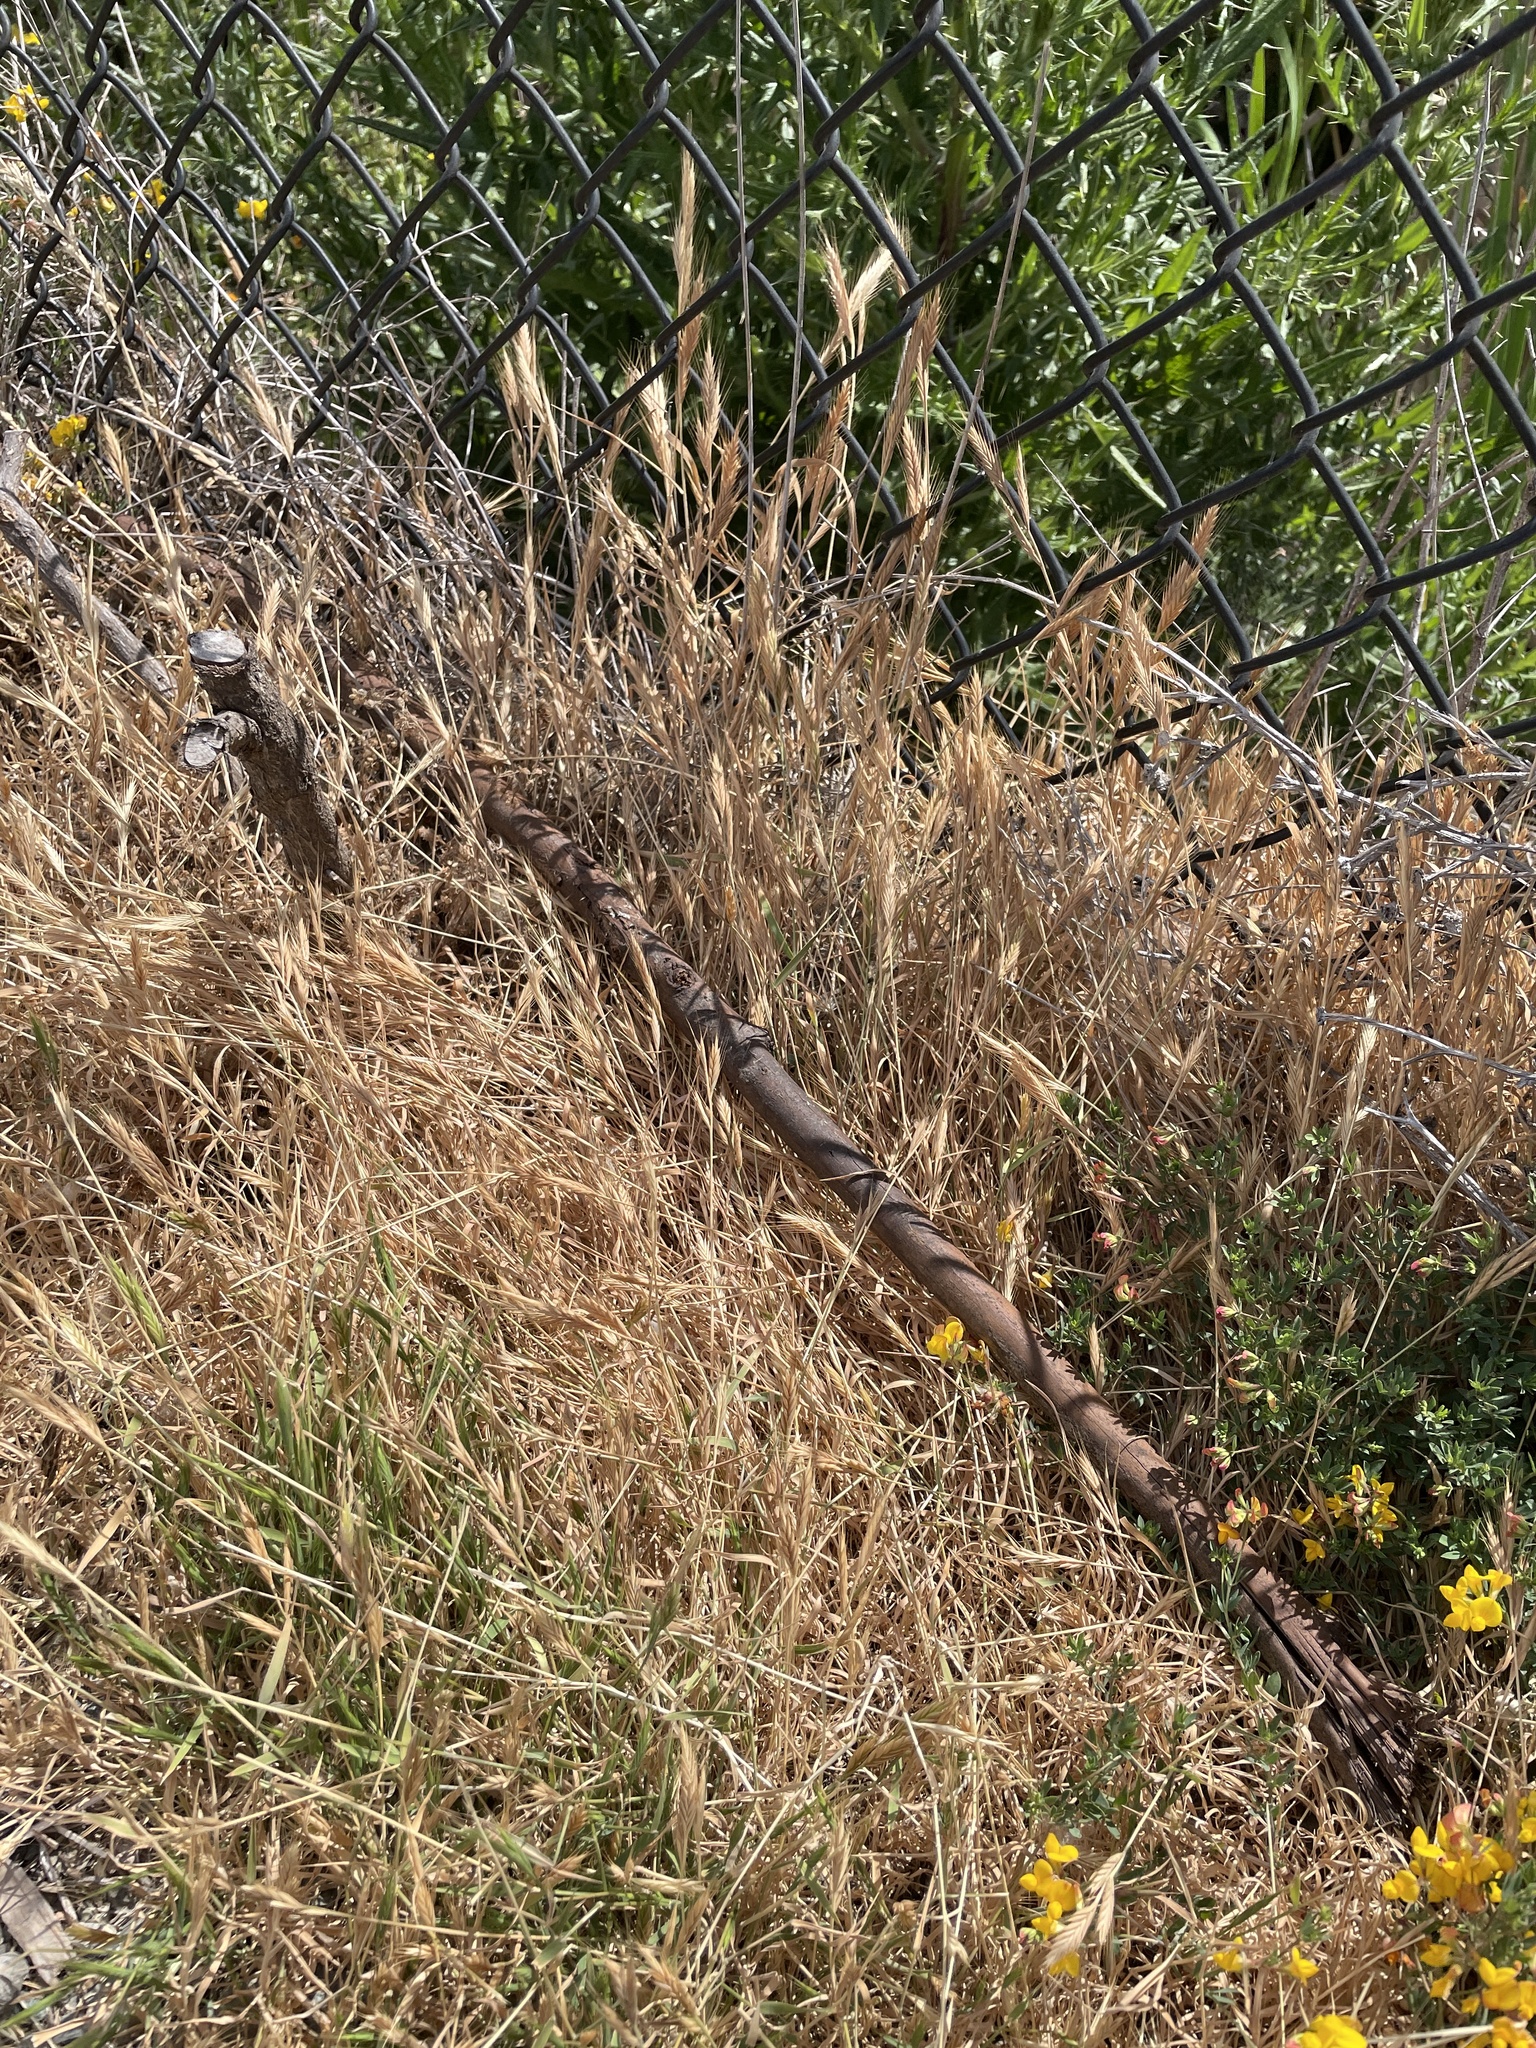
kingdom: Plantae
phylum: Tracheophyta
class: Liliopsida
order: Poales
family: Poaceae
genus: Brachypodium
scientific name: Brachypodium distachyon
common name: Stiff brome
